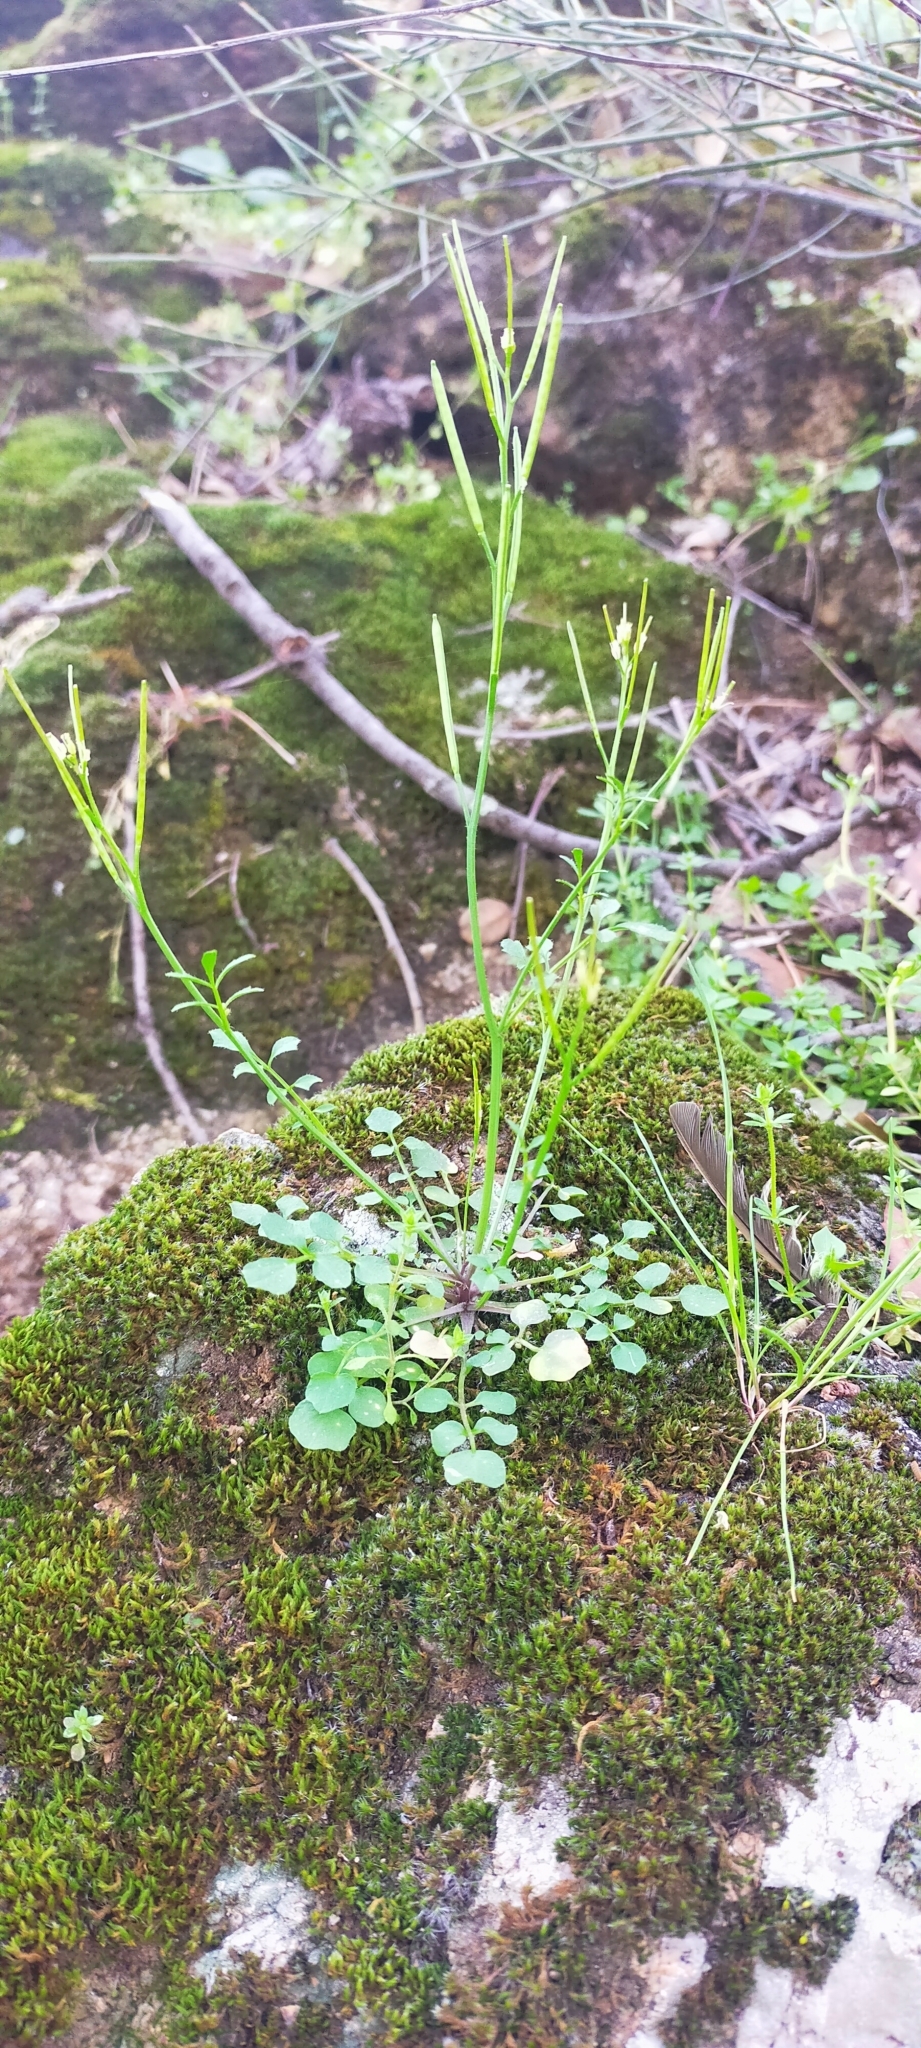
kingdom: Plantae
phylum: Tracheophyta
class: Magnoliopsida
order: Brassicales
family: Brassicaceae
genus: Cardamine
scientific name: Cardamine hirsuta
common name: Hairy bittercress
